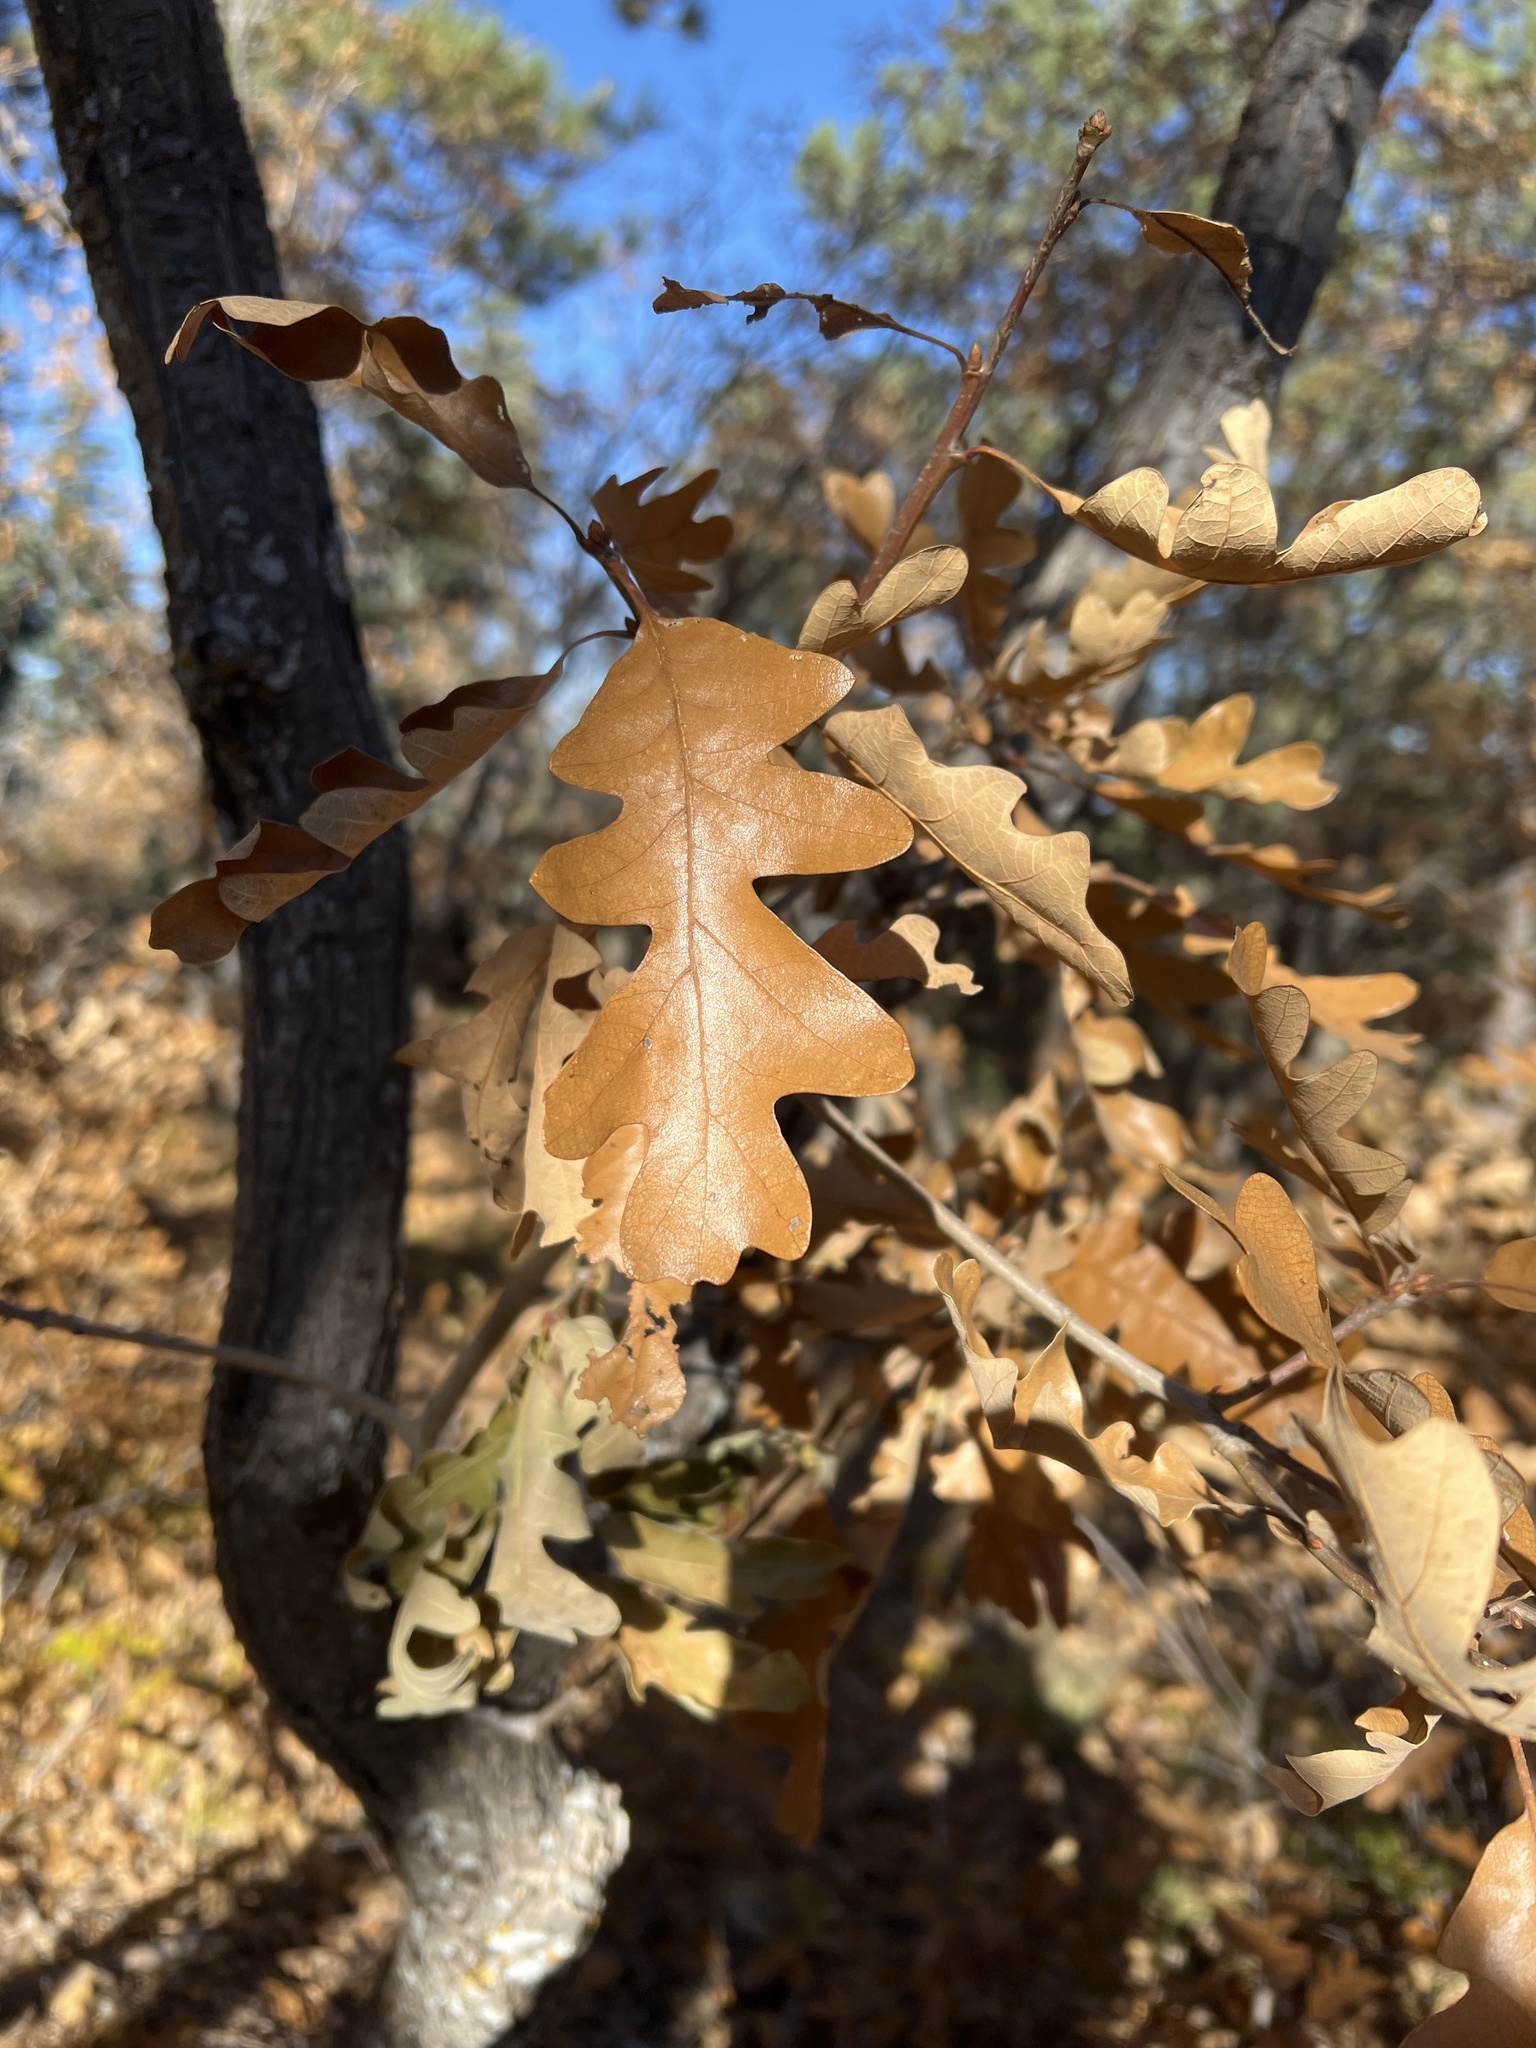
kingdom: Plantae
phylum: Tracheophyta
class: Magnoliopsida
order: Fagales
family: Fagaceae
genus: Quercus
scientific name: Quercus gambelii
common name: Gambel oak
